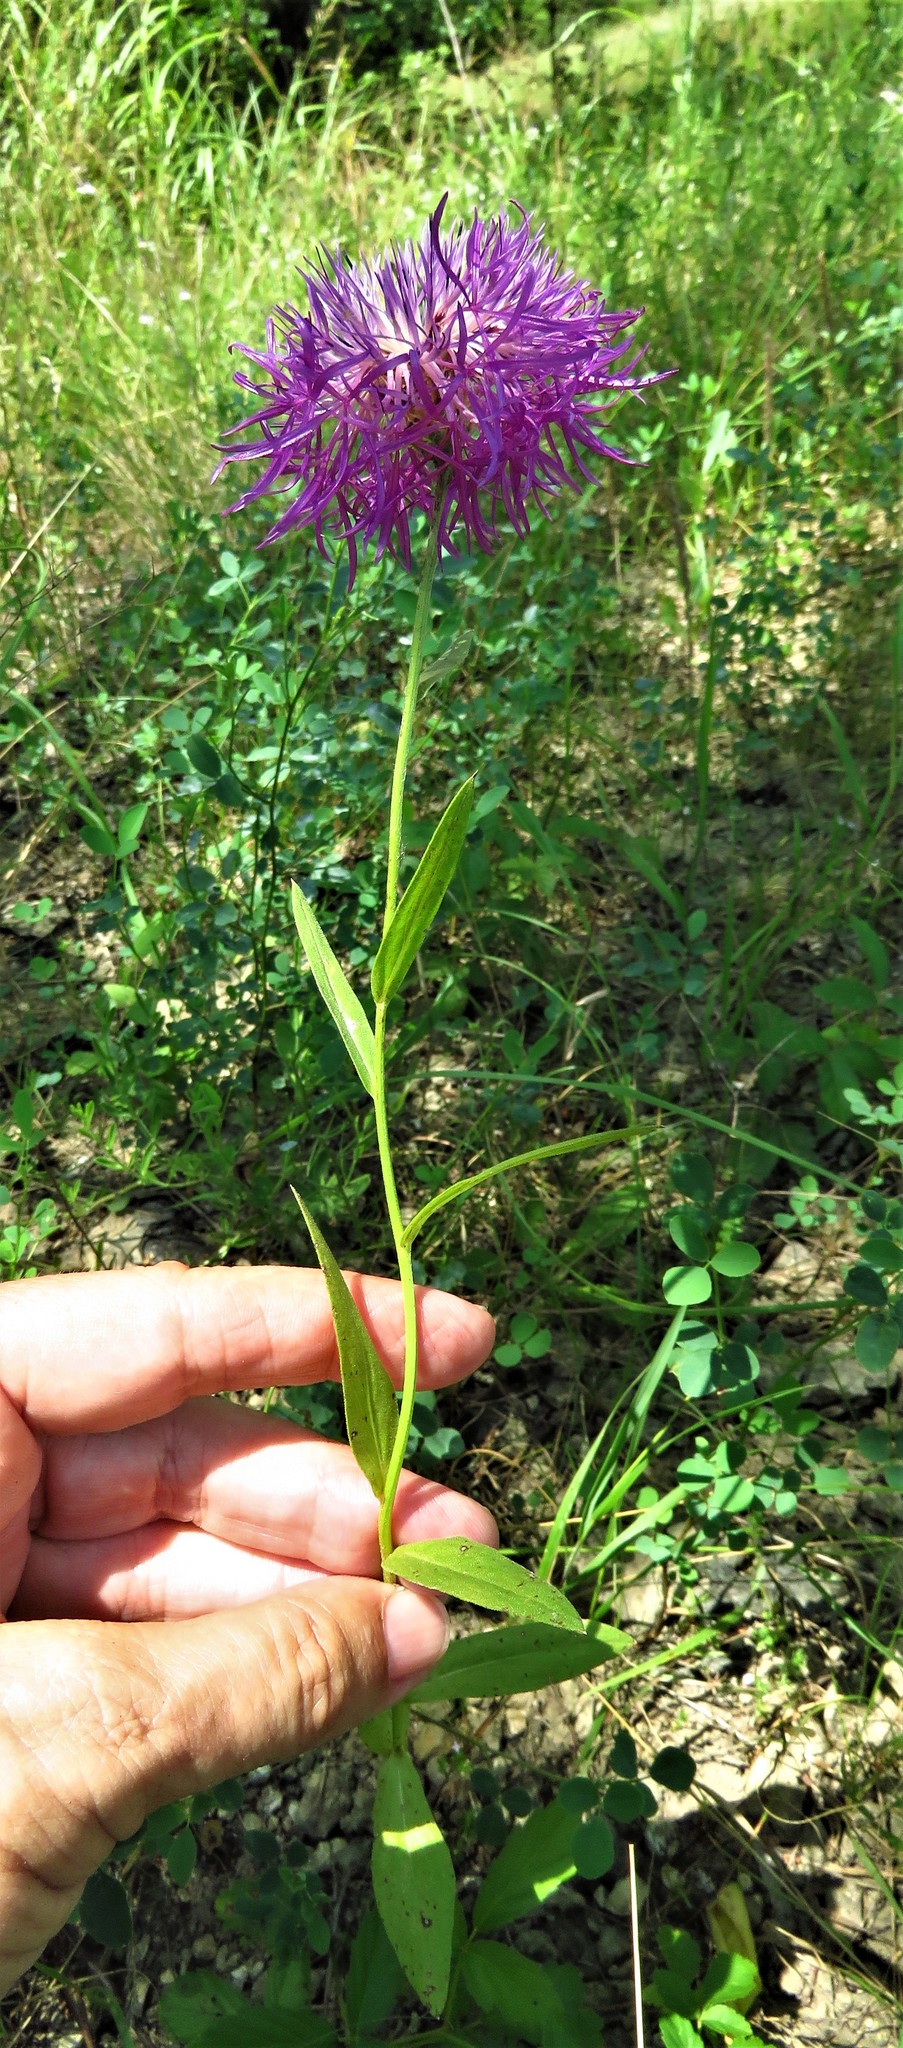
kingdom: Plantae
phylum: Tracheophyta
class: Magnoliopsida
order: Asterales
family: Asteraceae
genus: Plectocephalus
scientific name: Plectocephalus americanus
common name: American basket-flower
